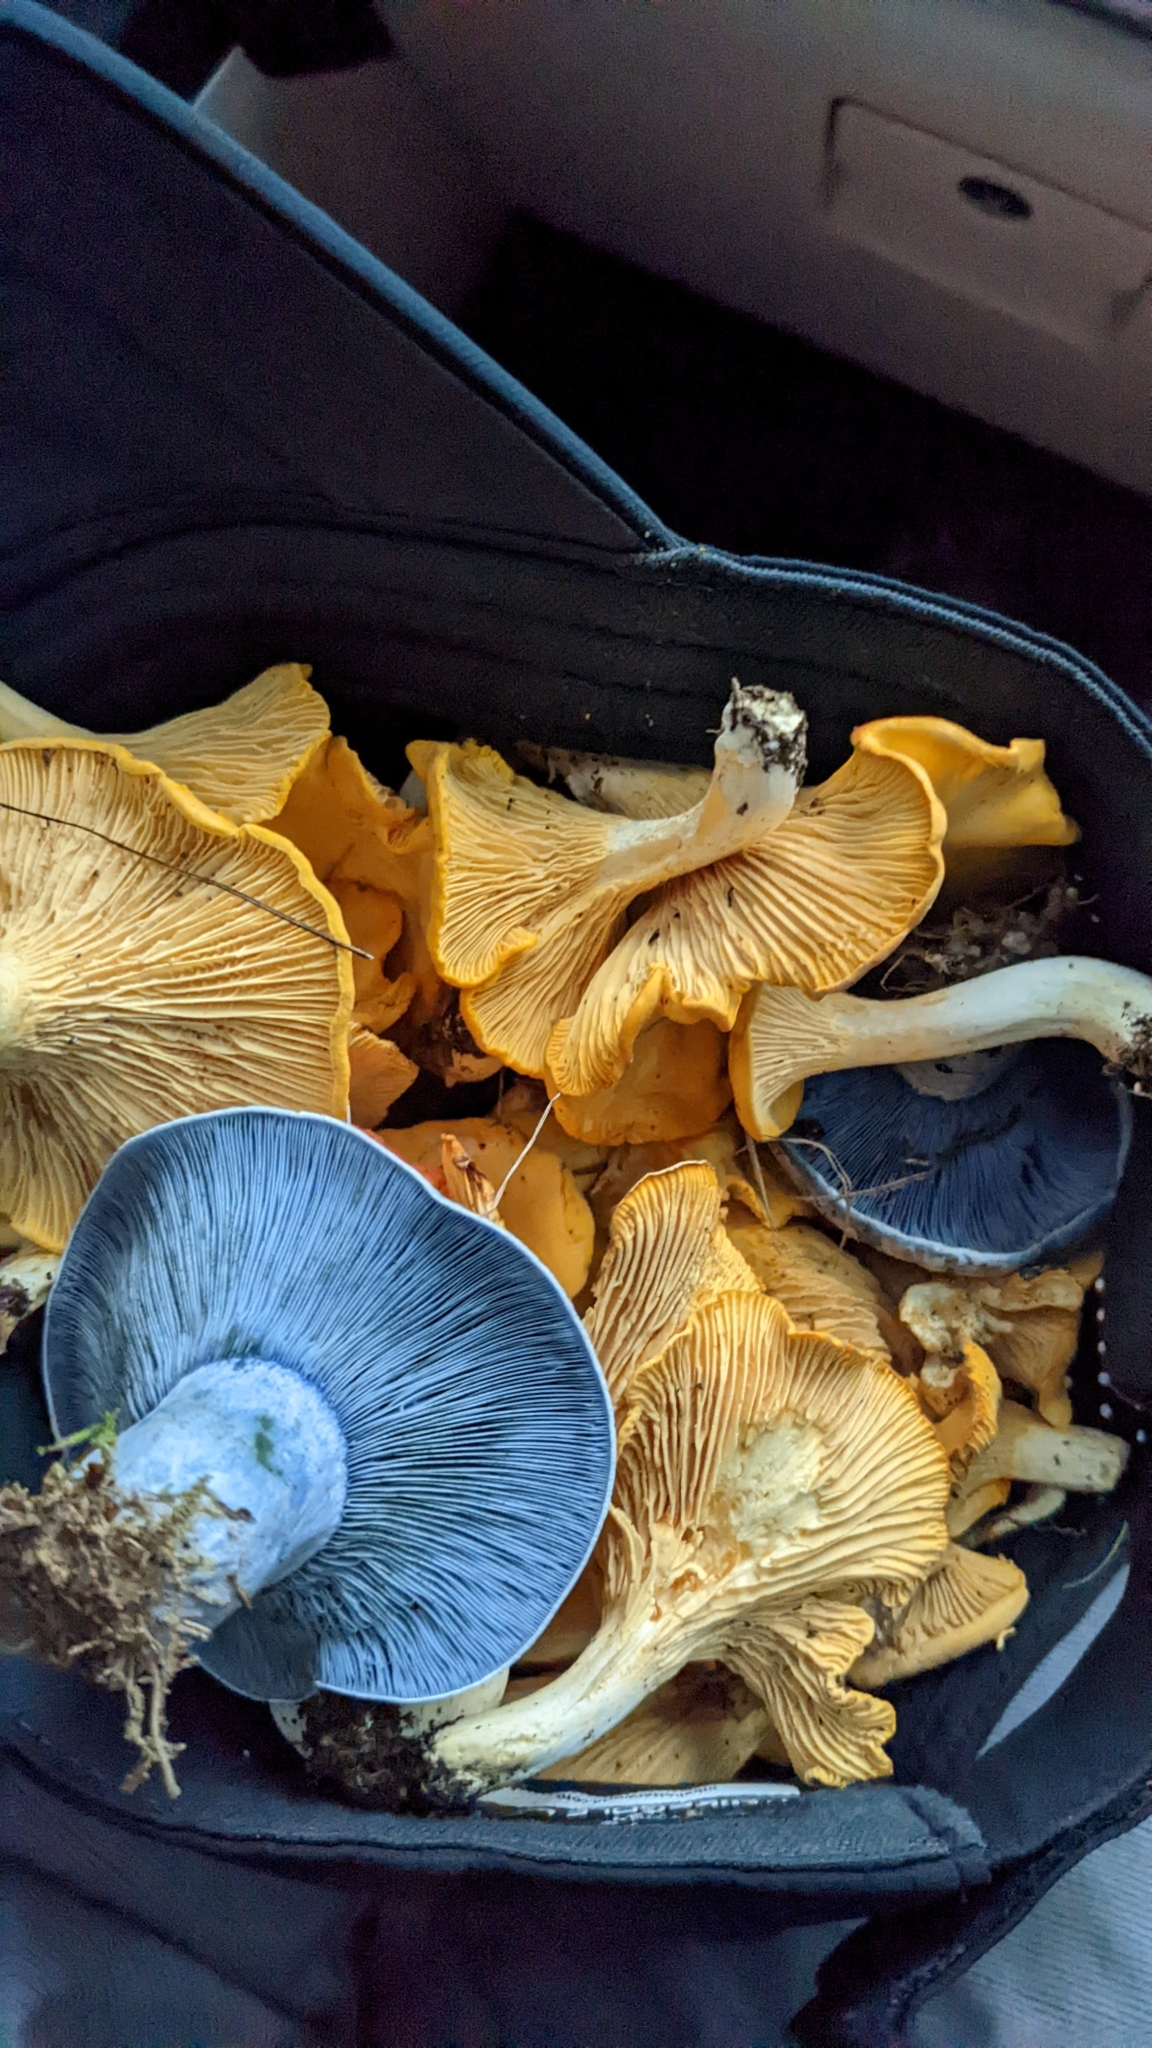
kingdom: Fungi
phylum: Basidiomycota
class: Agaricomycetes
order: Russulales
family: Russulaceae
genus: Lactarius
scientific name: Lactarius indigo
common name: Indigo milk cap
